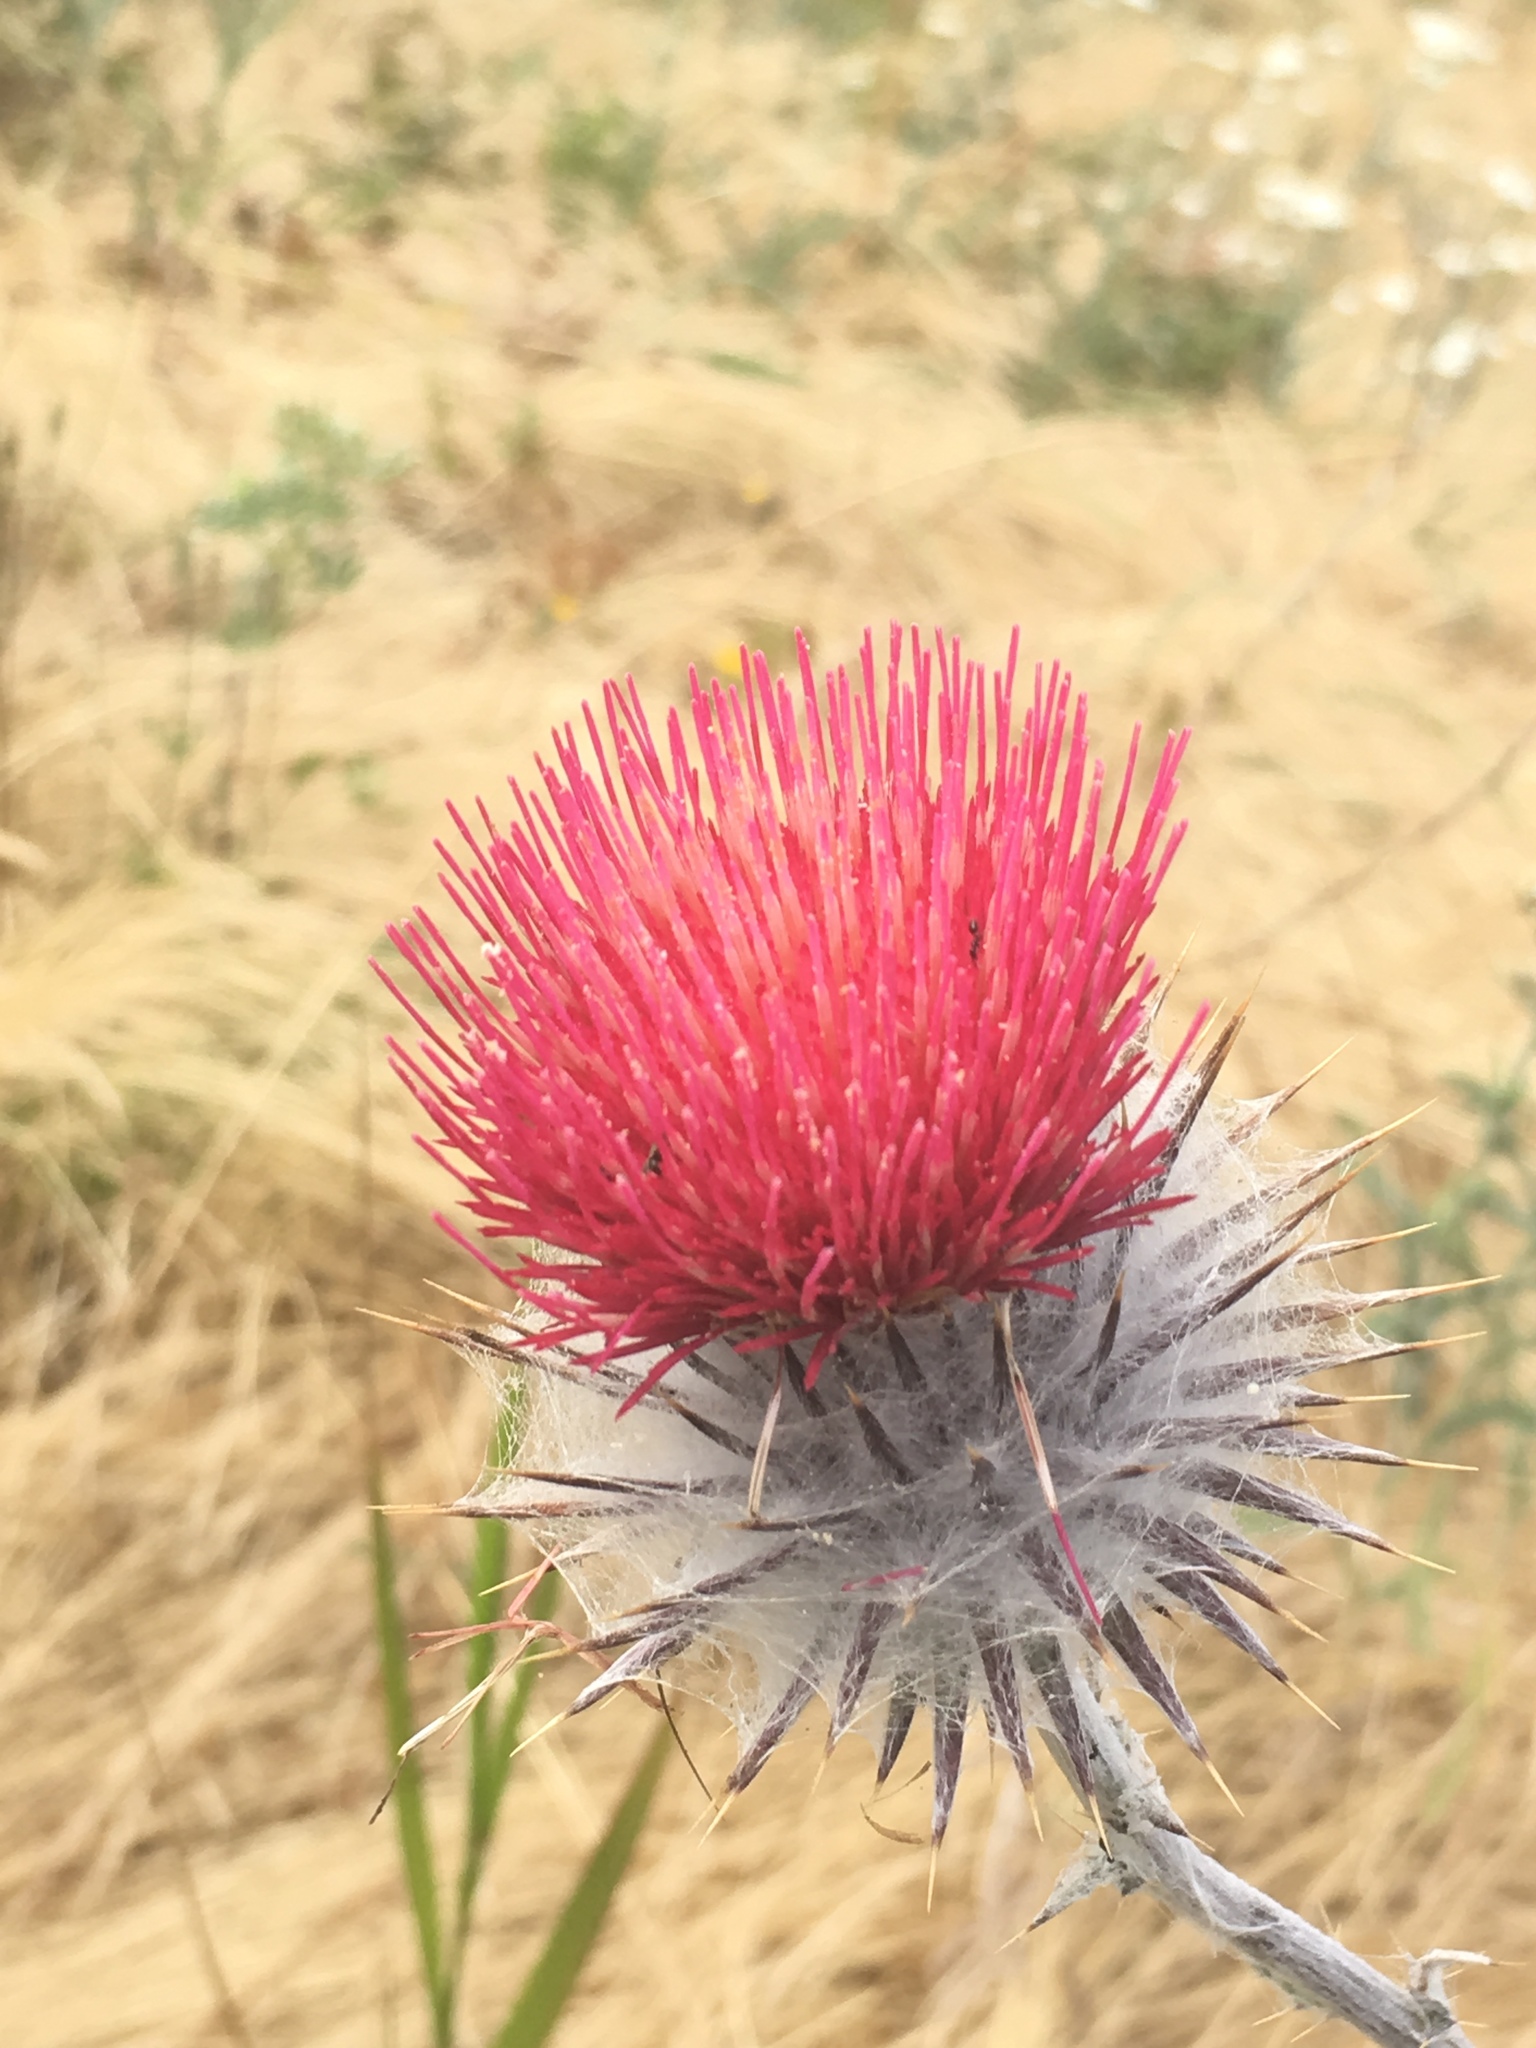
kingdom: Plantae
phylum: Tracheophyta
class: Magnoliopsida
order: Asterales
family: Asteraceae
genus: Cirsium
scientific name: Cirsium occidentale
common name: Western thistle
